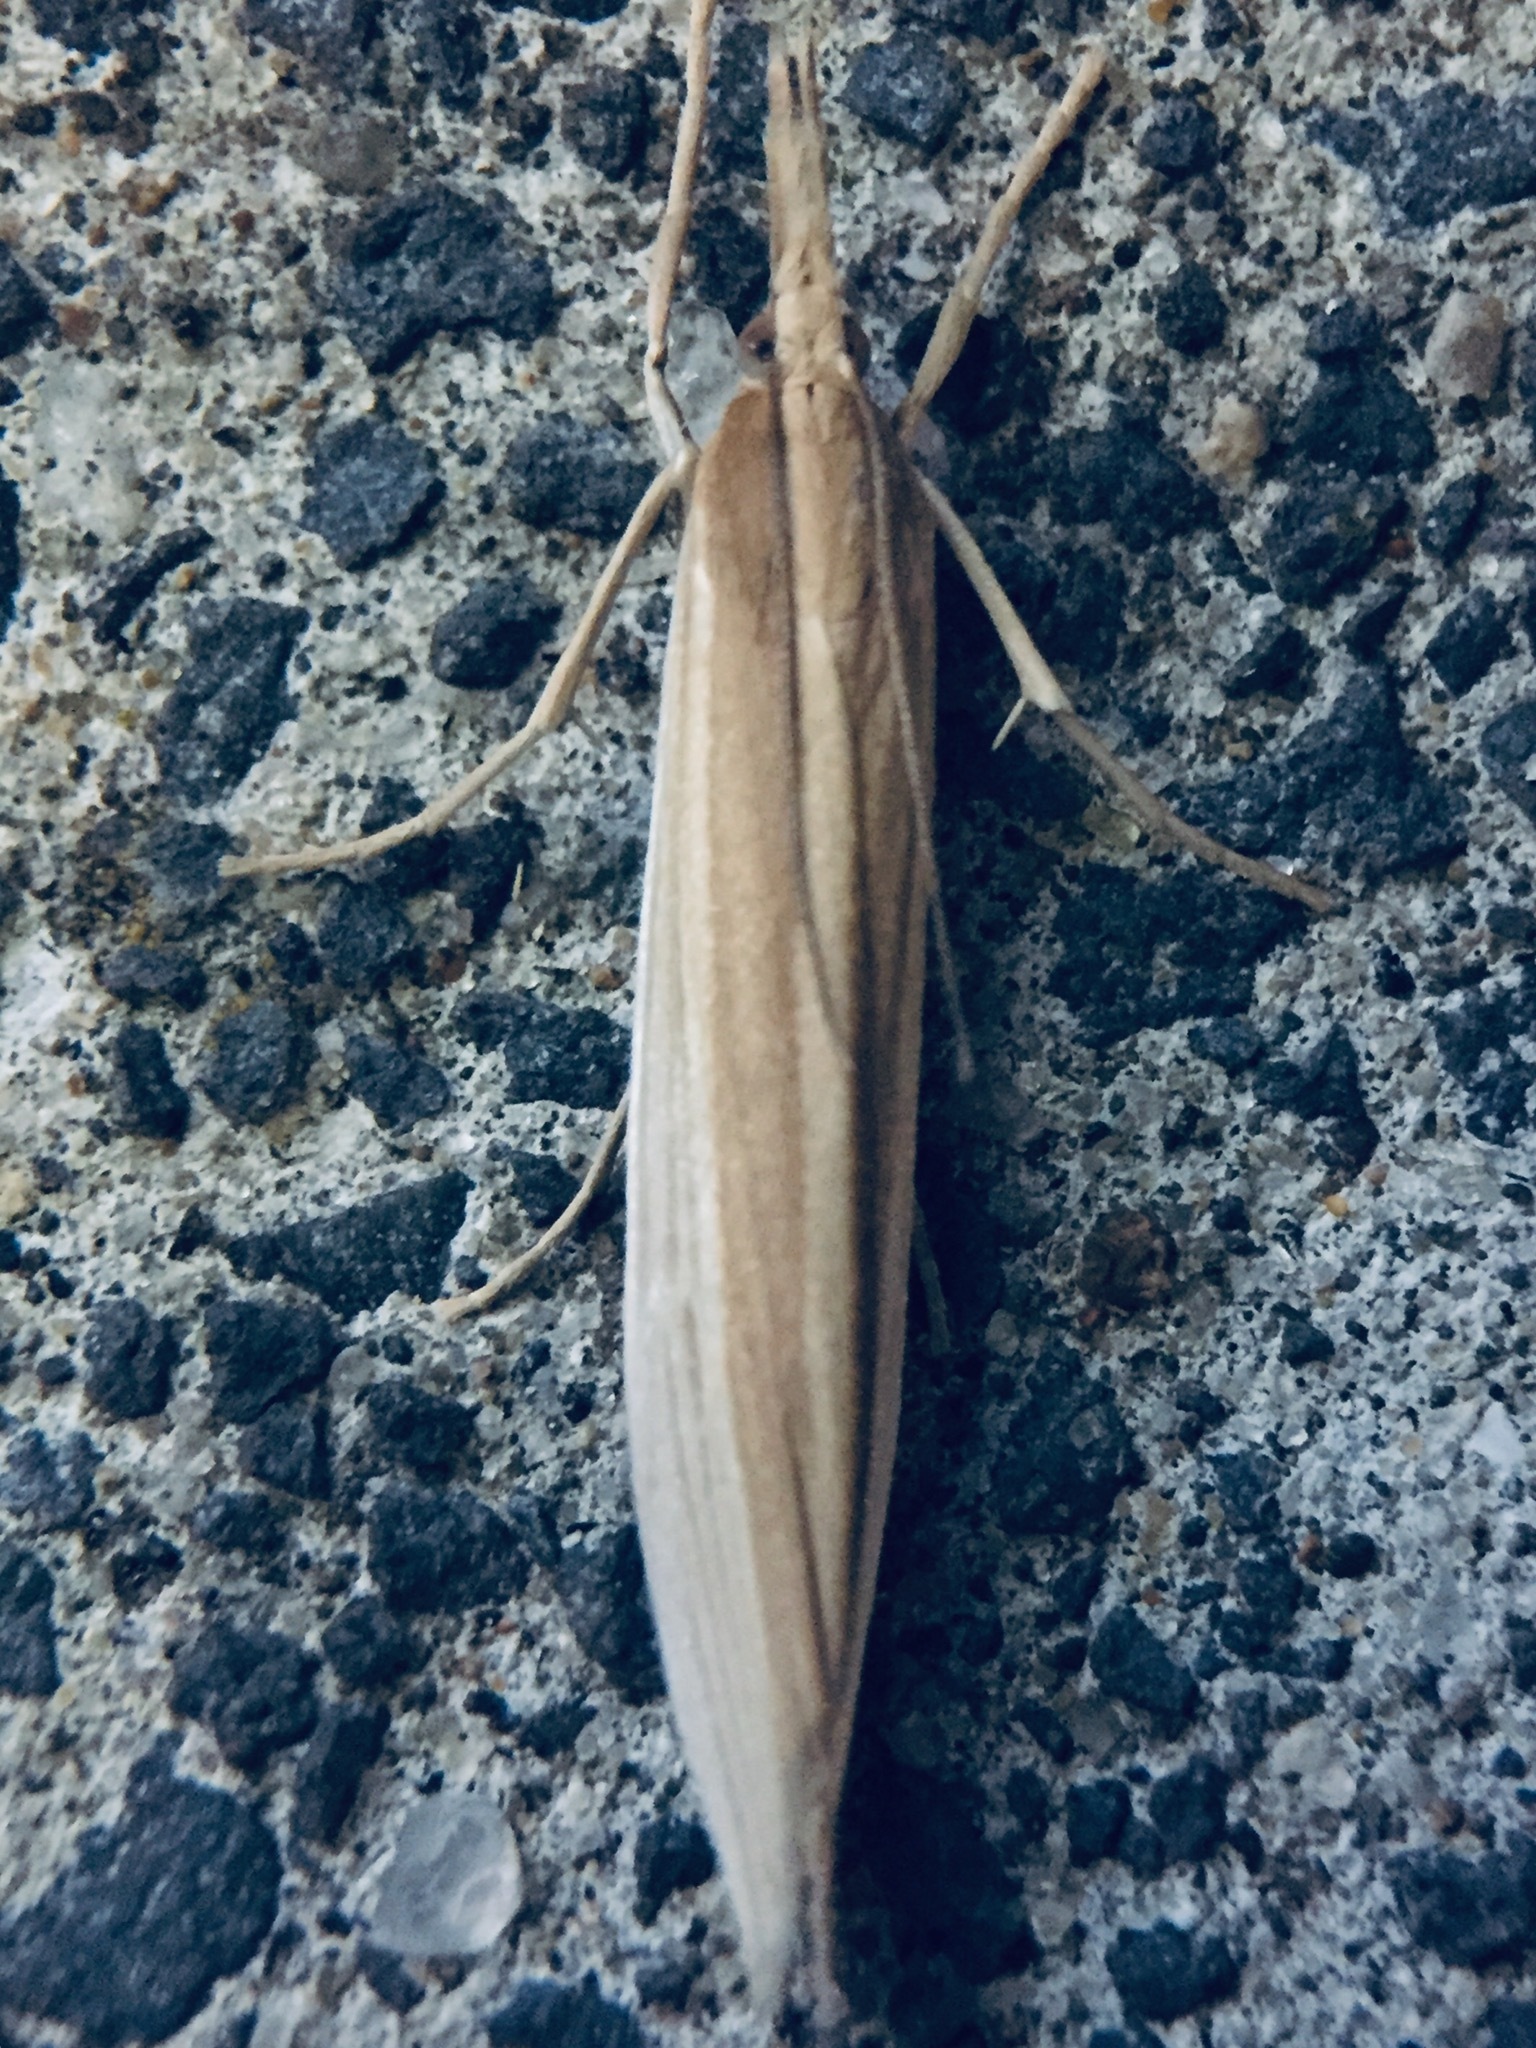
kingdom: Animalia
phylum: Arthropoda
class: Insecta
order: Lepidoptera
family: Crambidae
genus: Orocrambus
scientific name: Orocrambus angustipennis
